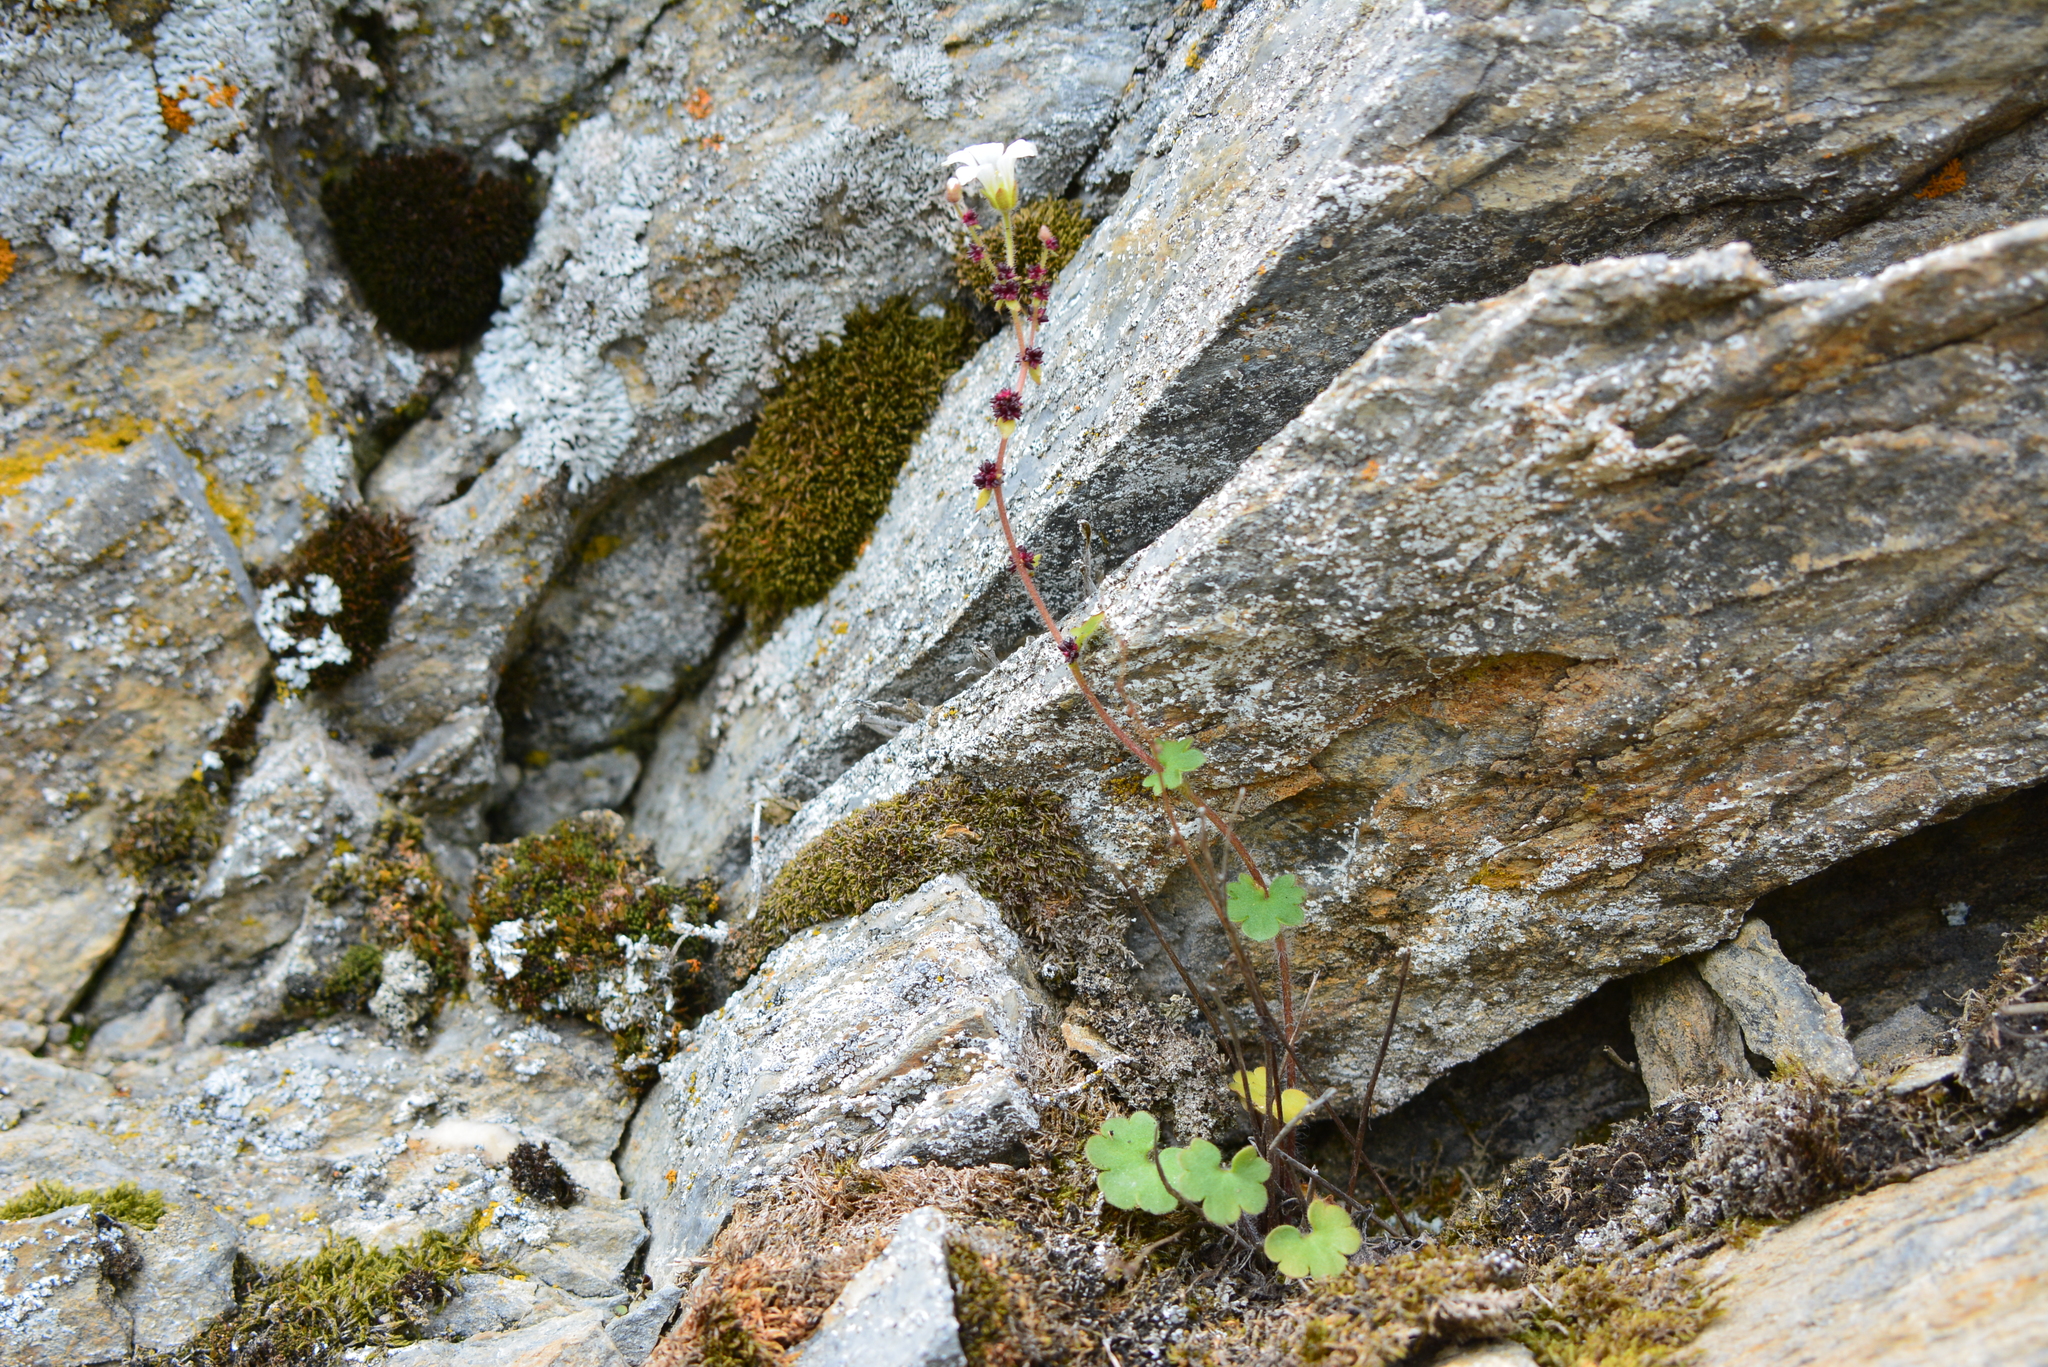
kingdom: Plantae
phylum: Tracheophyta
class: Magnoliopsida
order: Saxifragales
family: Saxifragaceae
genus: Saxifraga
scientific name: Saxifraga cernua
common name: Drooping saxifrage
